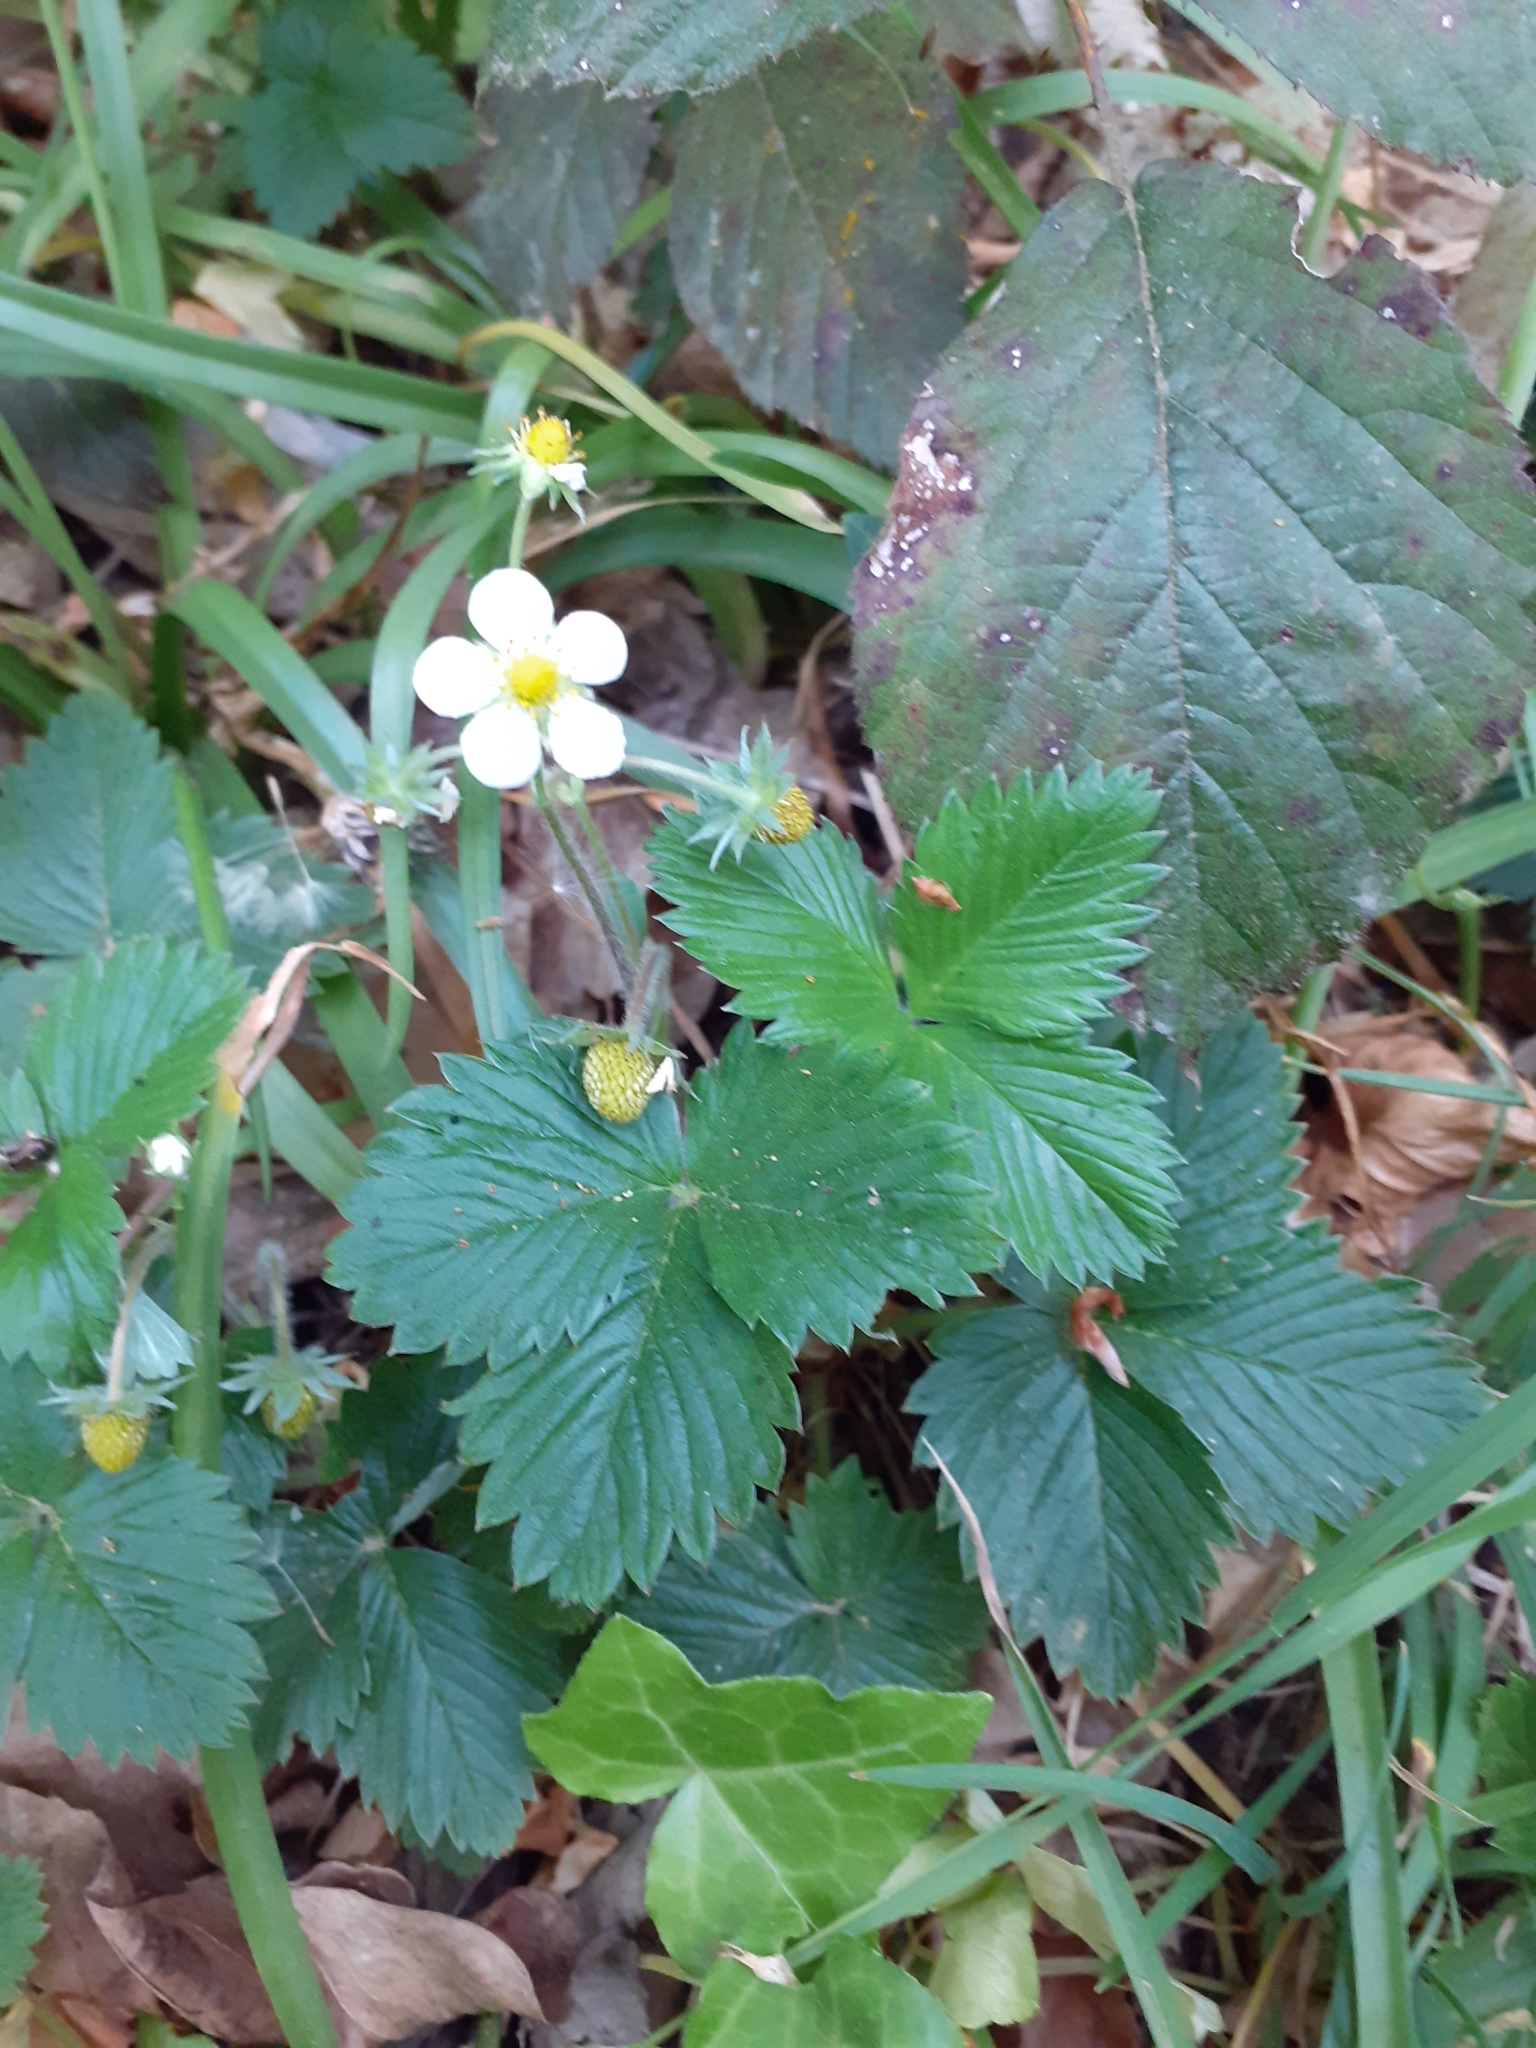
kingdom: Plantae
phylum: Tracheophyta
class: Magnoliopsida
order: Rosales
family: Rosaceae
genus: Fragaria
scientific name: Fragaria vesca
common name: Wild strawberry
